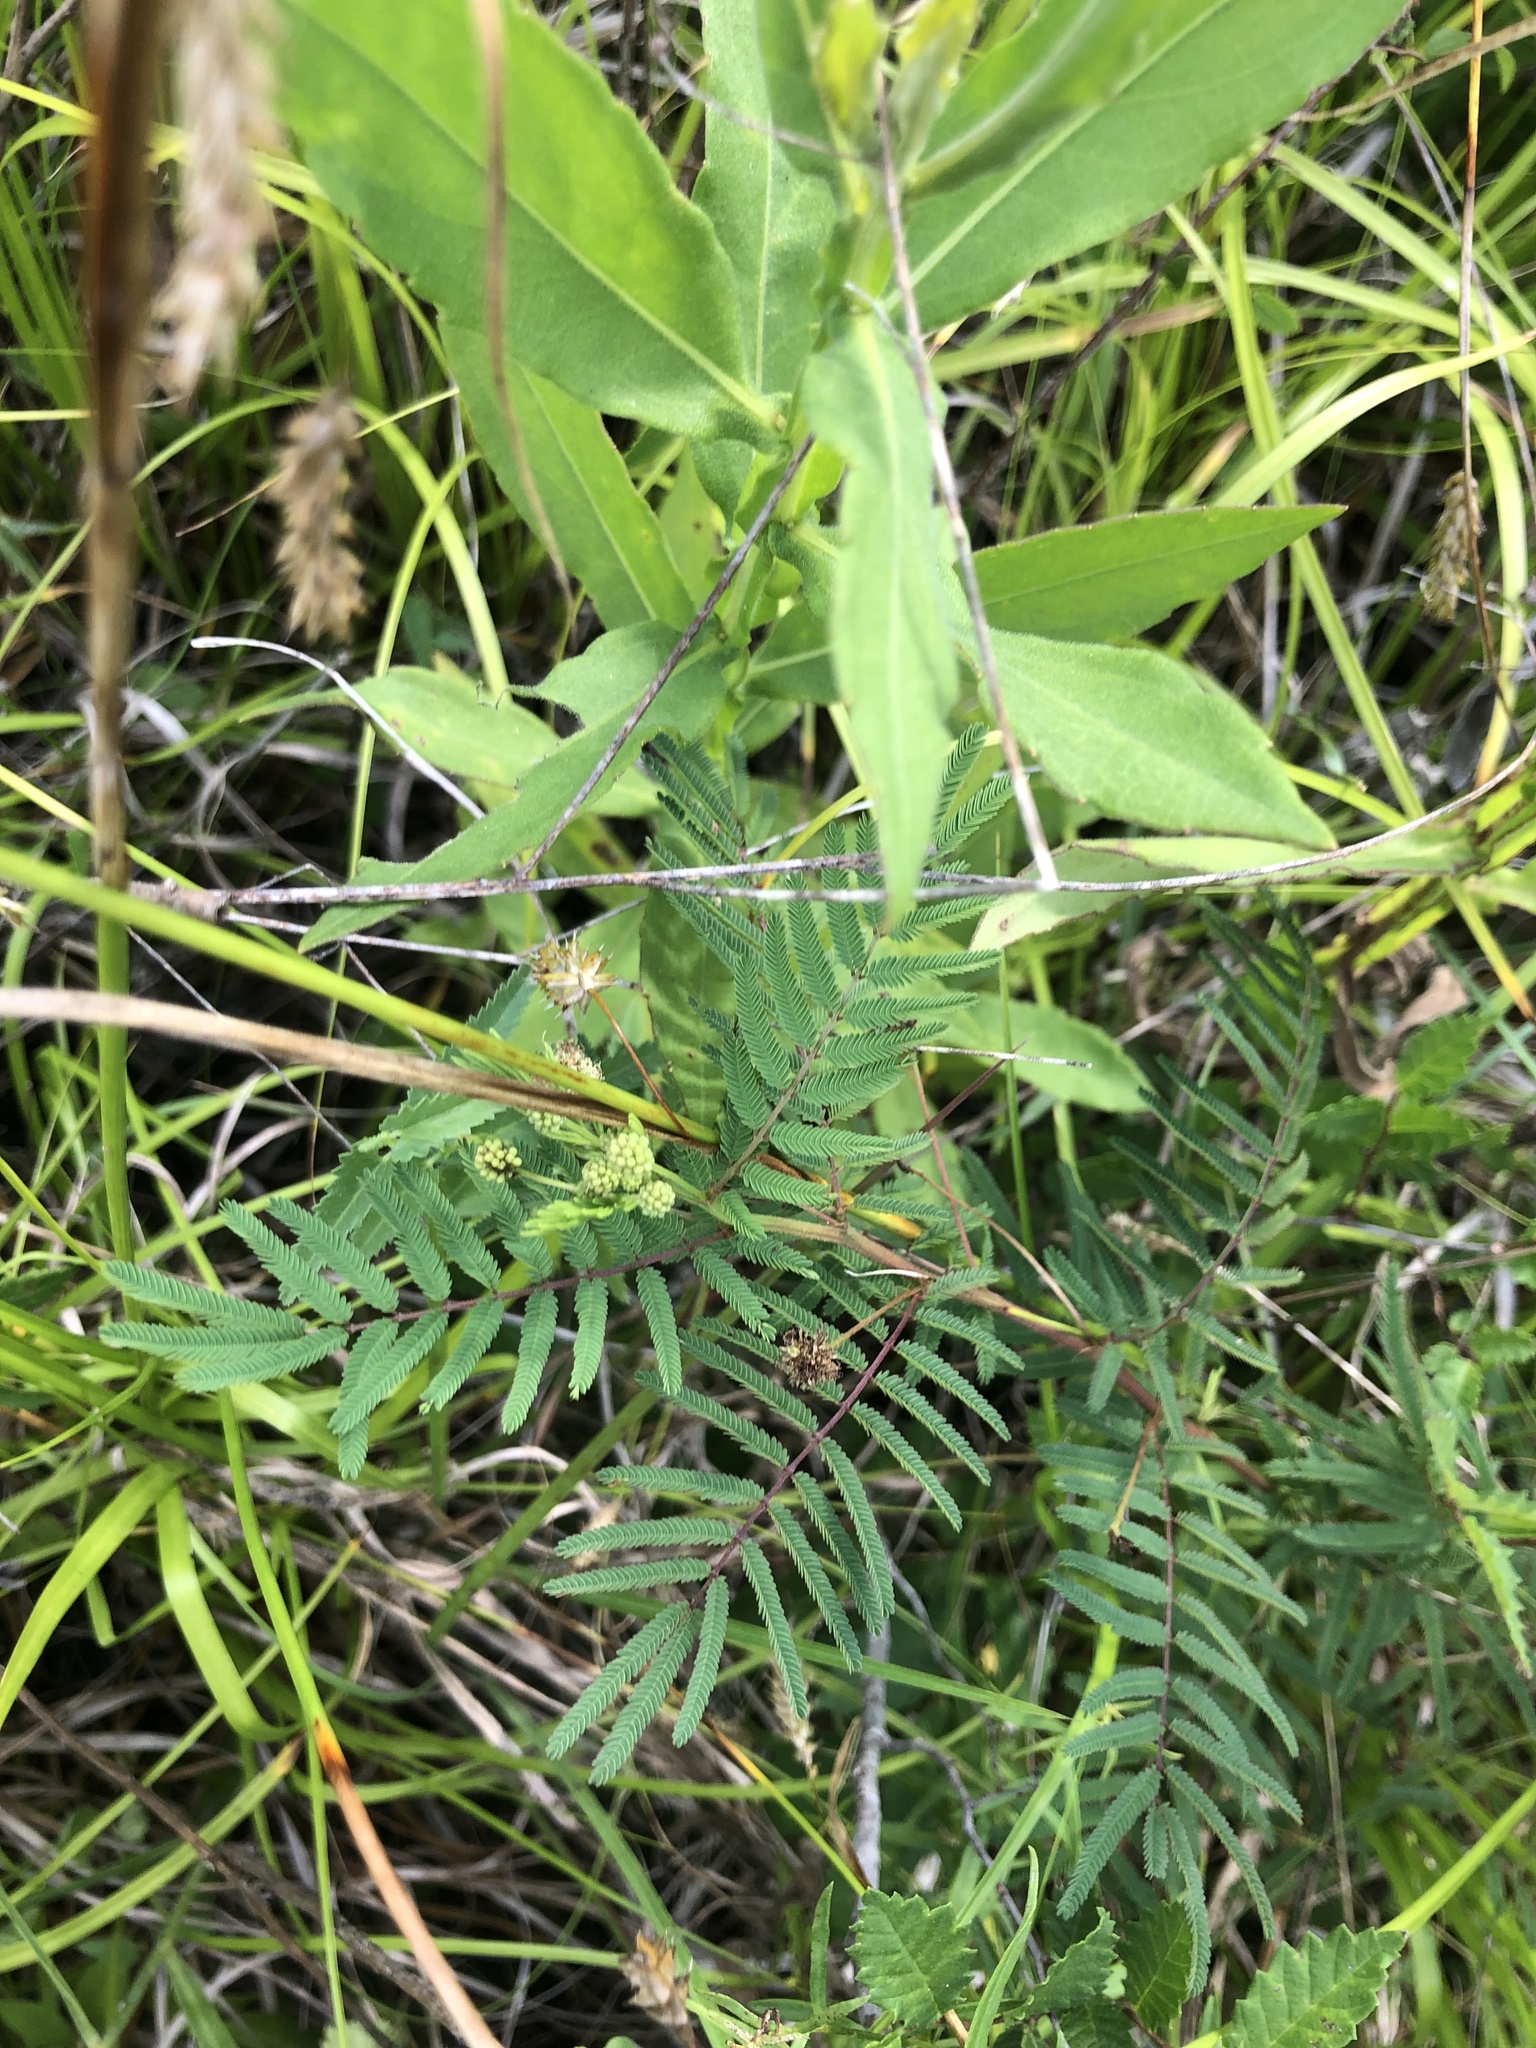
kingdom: Plantae
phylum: Tracheophyta
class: Magnoliopsida
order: Fabales
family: Fabaceae
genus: Desmanthus
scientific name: Desmanthus illinoensis
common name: Illinois bundle-flower
